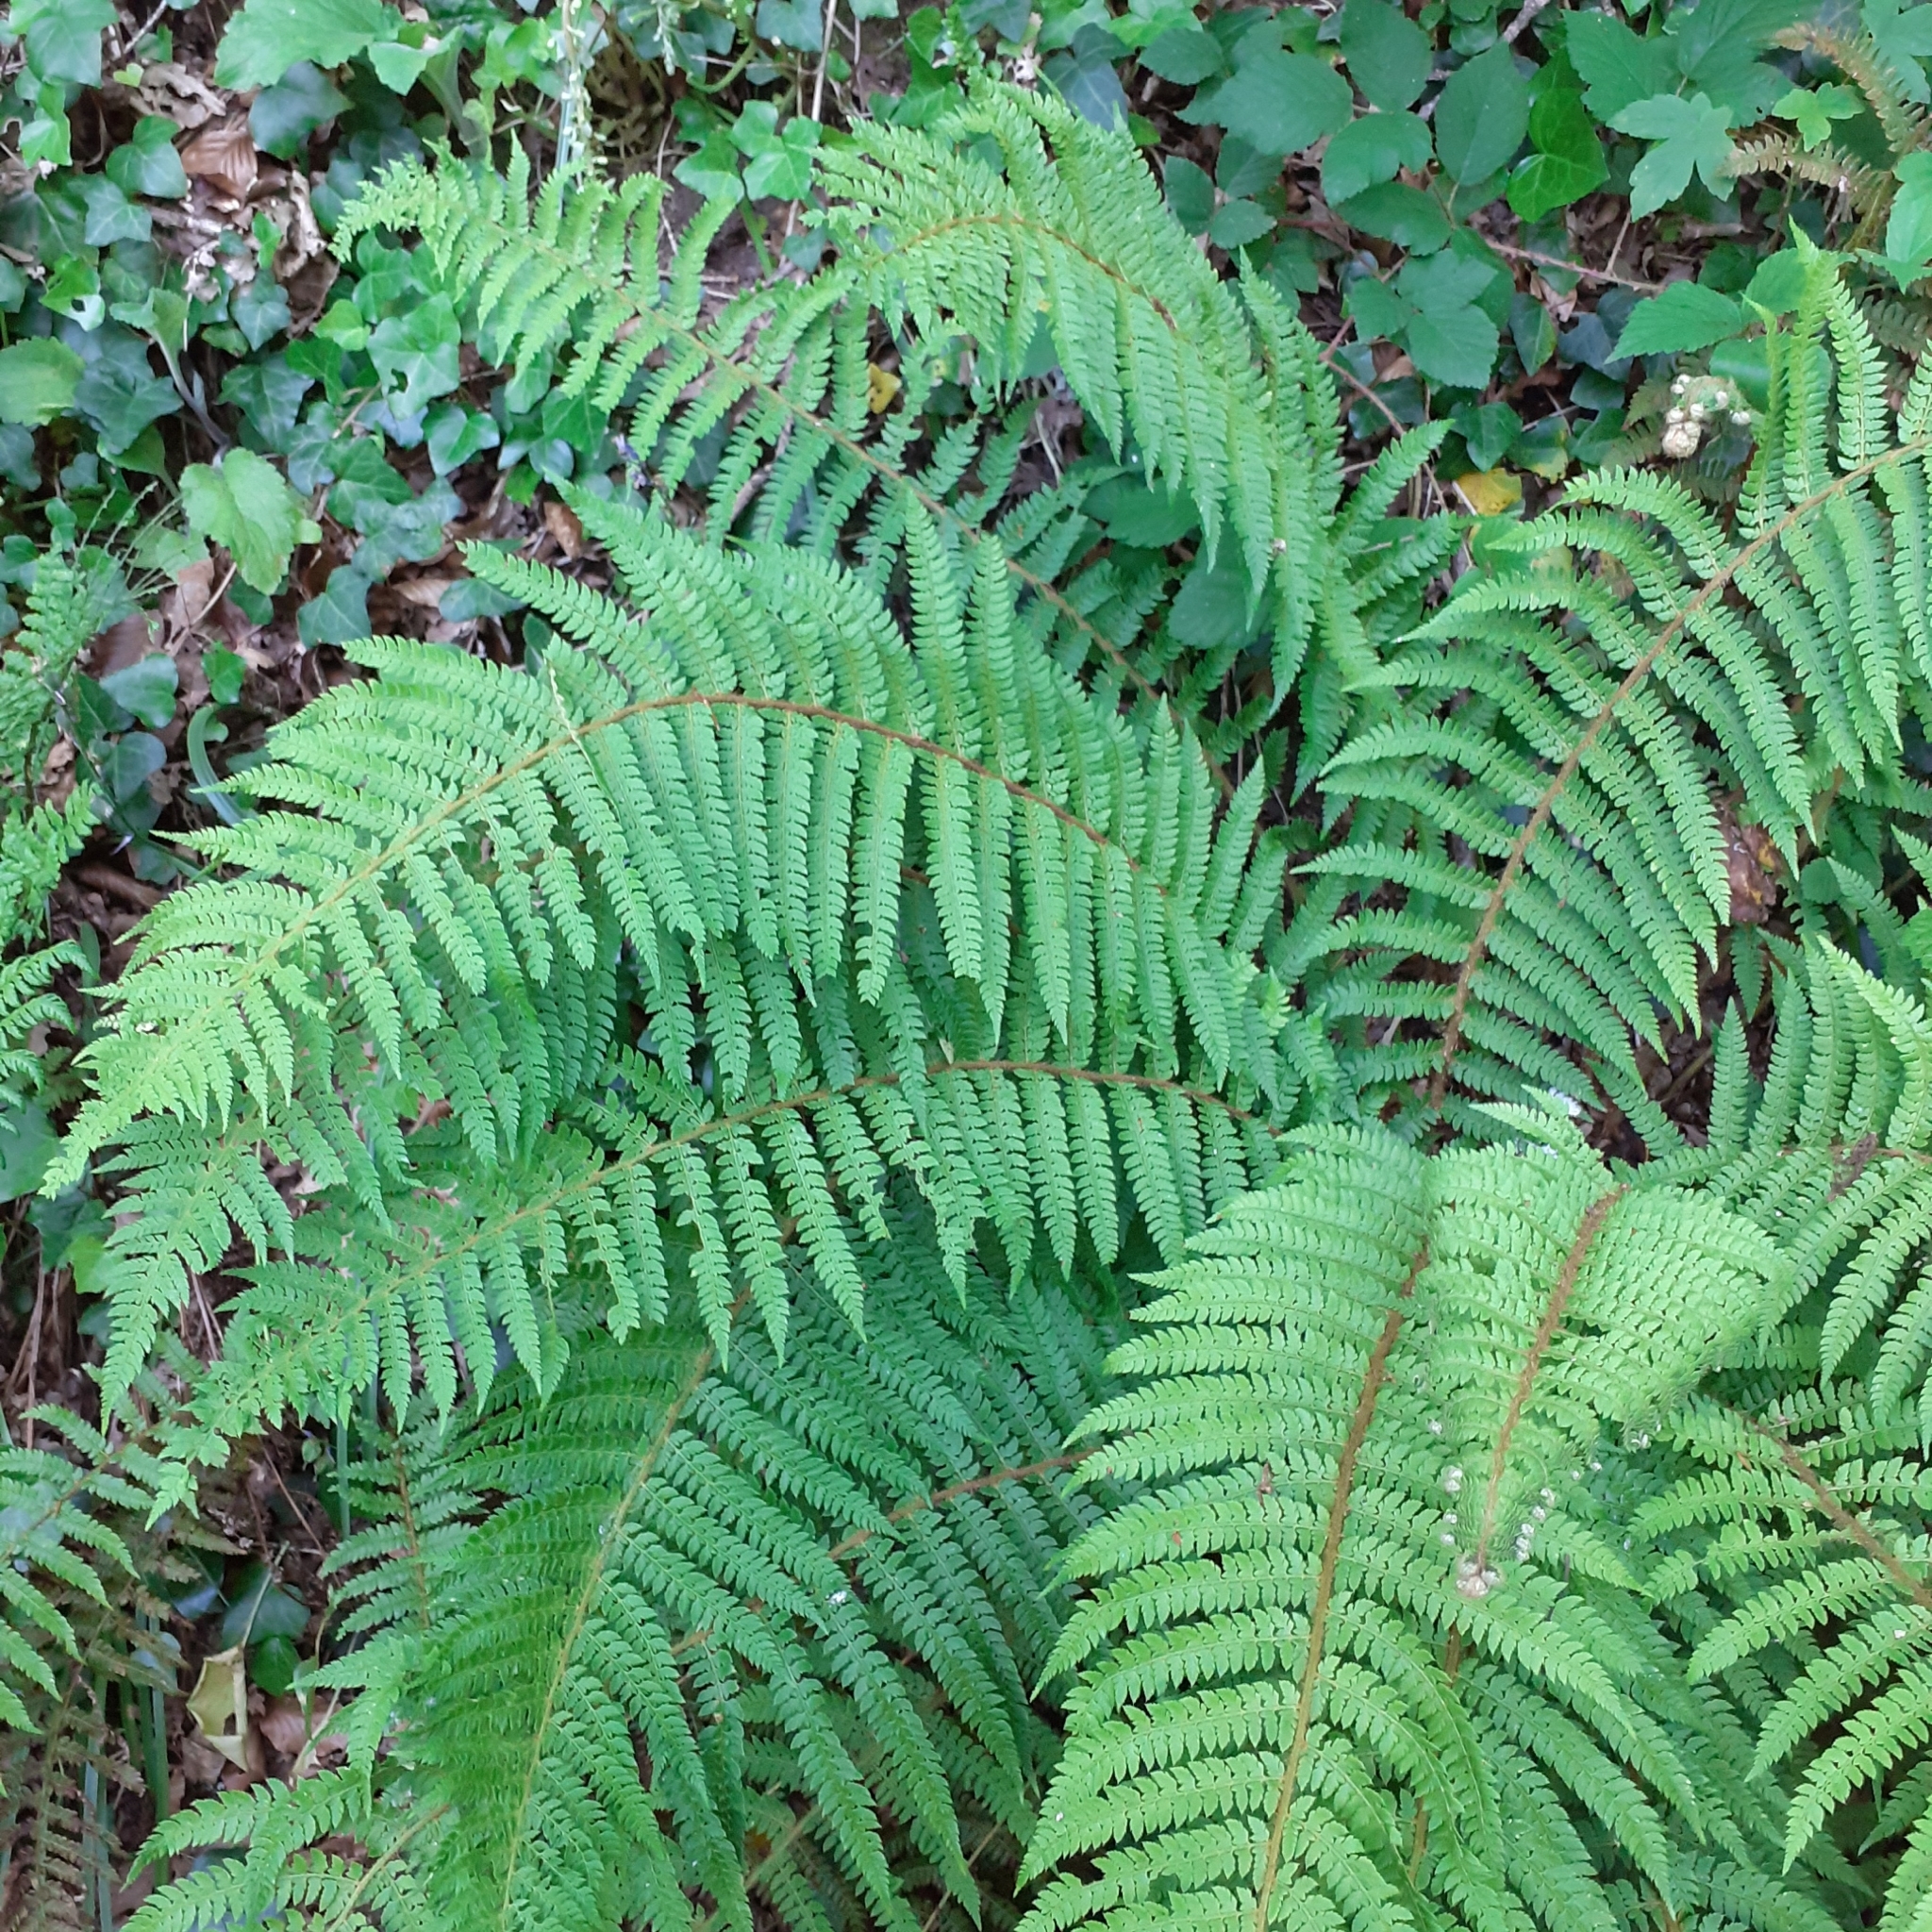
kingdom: Plantae
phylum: Tracheophyta
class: Polypodiopsida
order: Polypodiales
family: Dryopteridaceae
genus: Polystichum
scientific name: Polystichum setiferum
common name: Soft shield-fern
